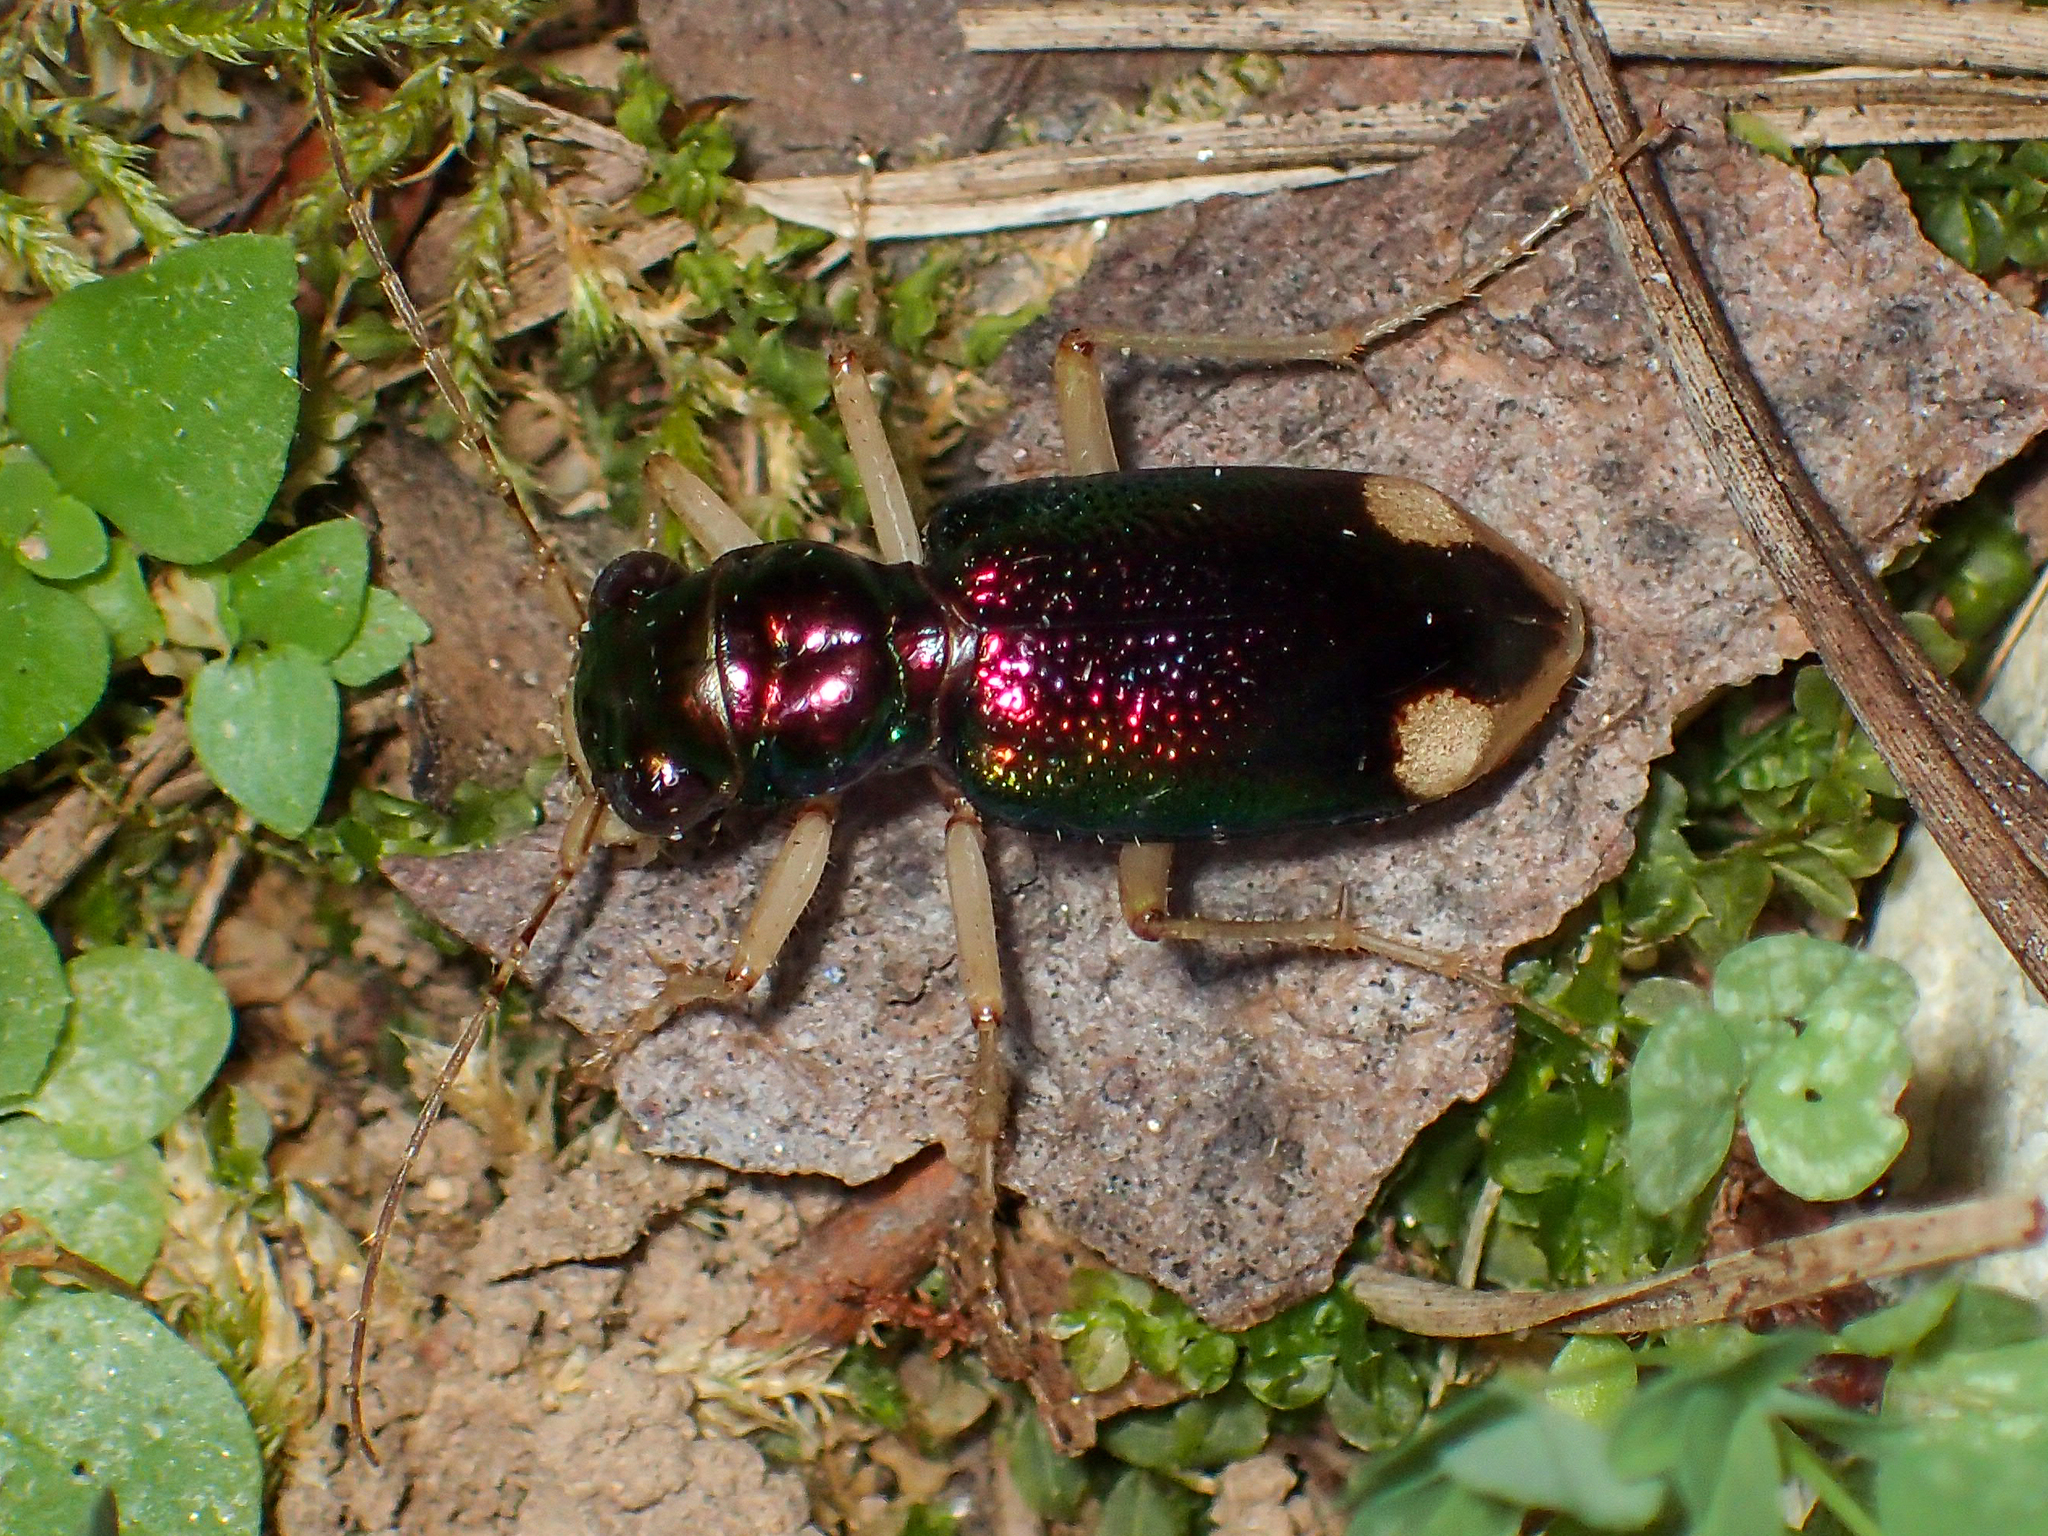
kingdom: Animalia
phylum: Arthropoda
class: Insecta
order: Coleoptera
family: Carabidae
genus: Tetracha
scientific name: Tetracha carolina
